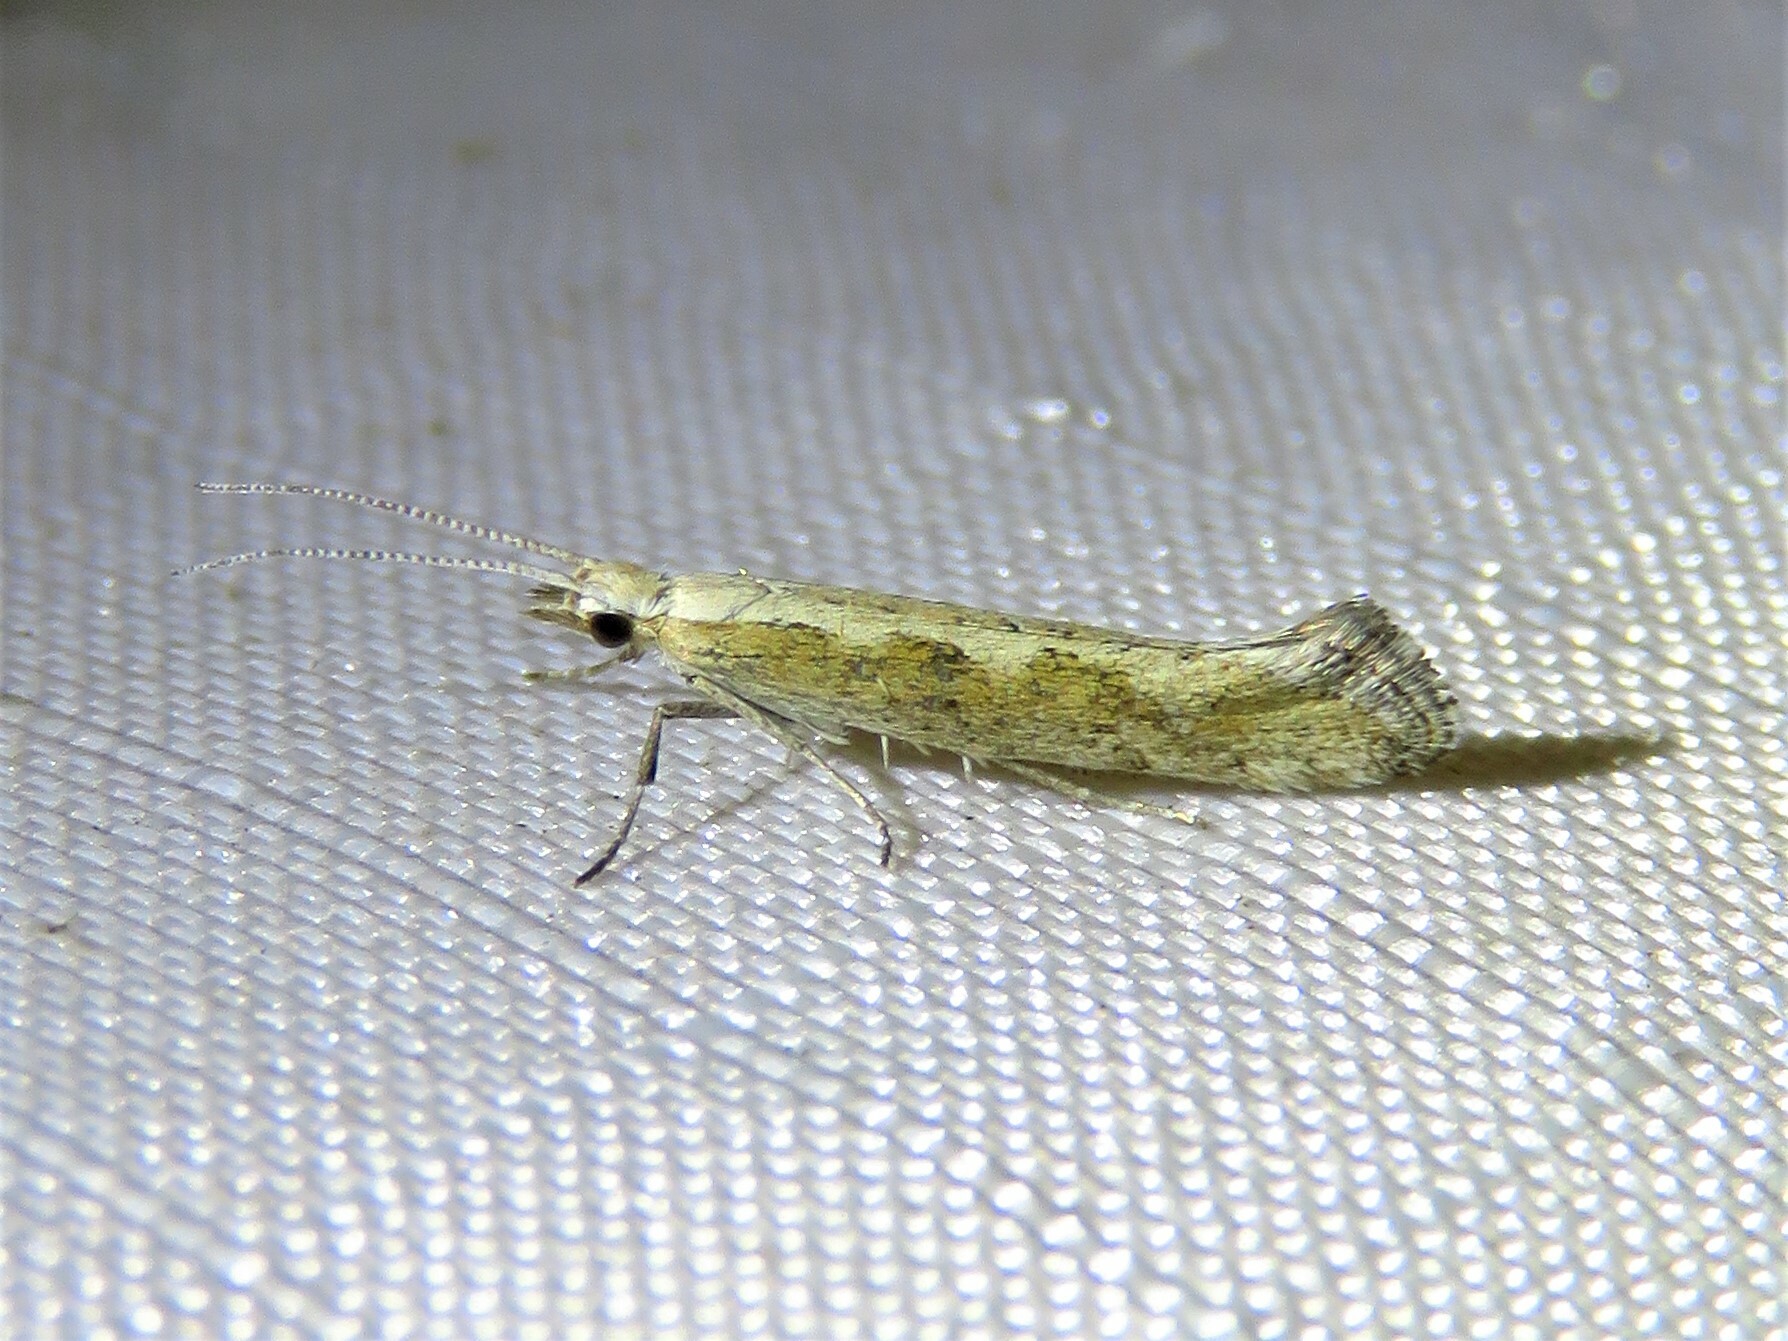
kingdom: Animalia
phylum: Arthropoda
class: Insecta
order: Lepidoptera
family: Plutellidae
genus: Plutella
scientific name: Plutella xylostella
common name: Diamond-back moth
